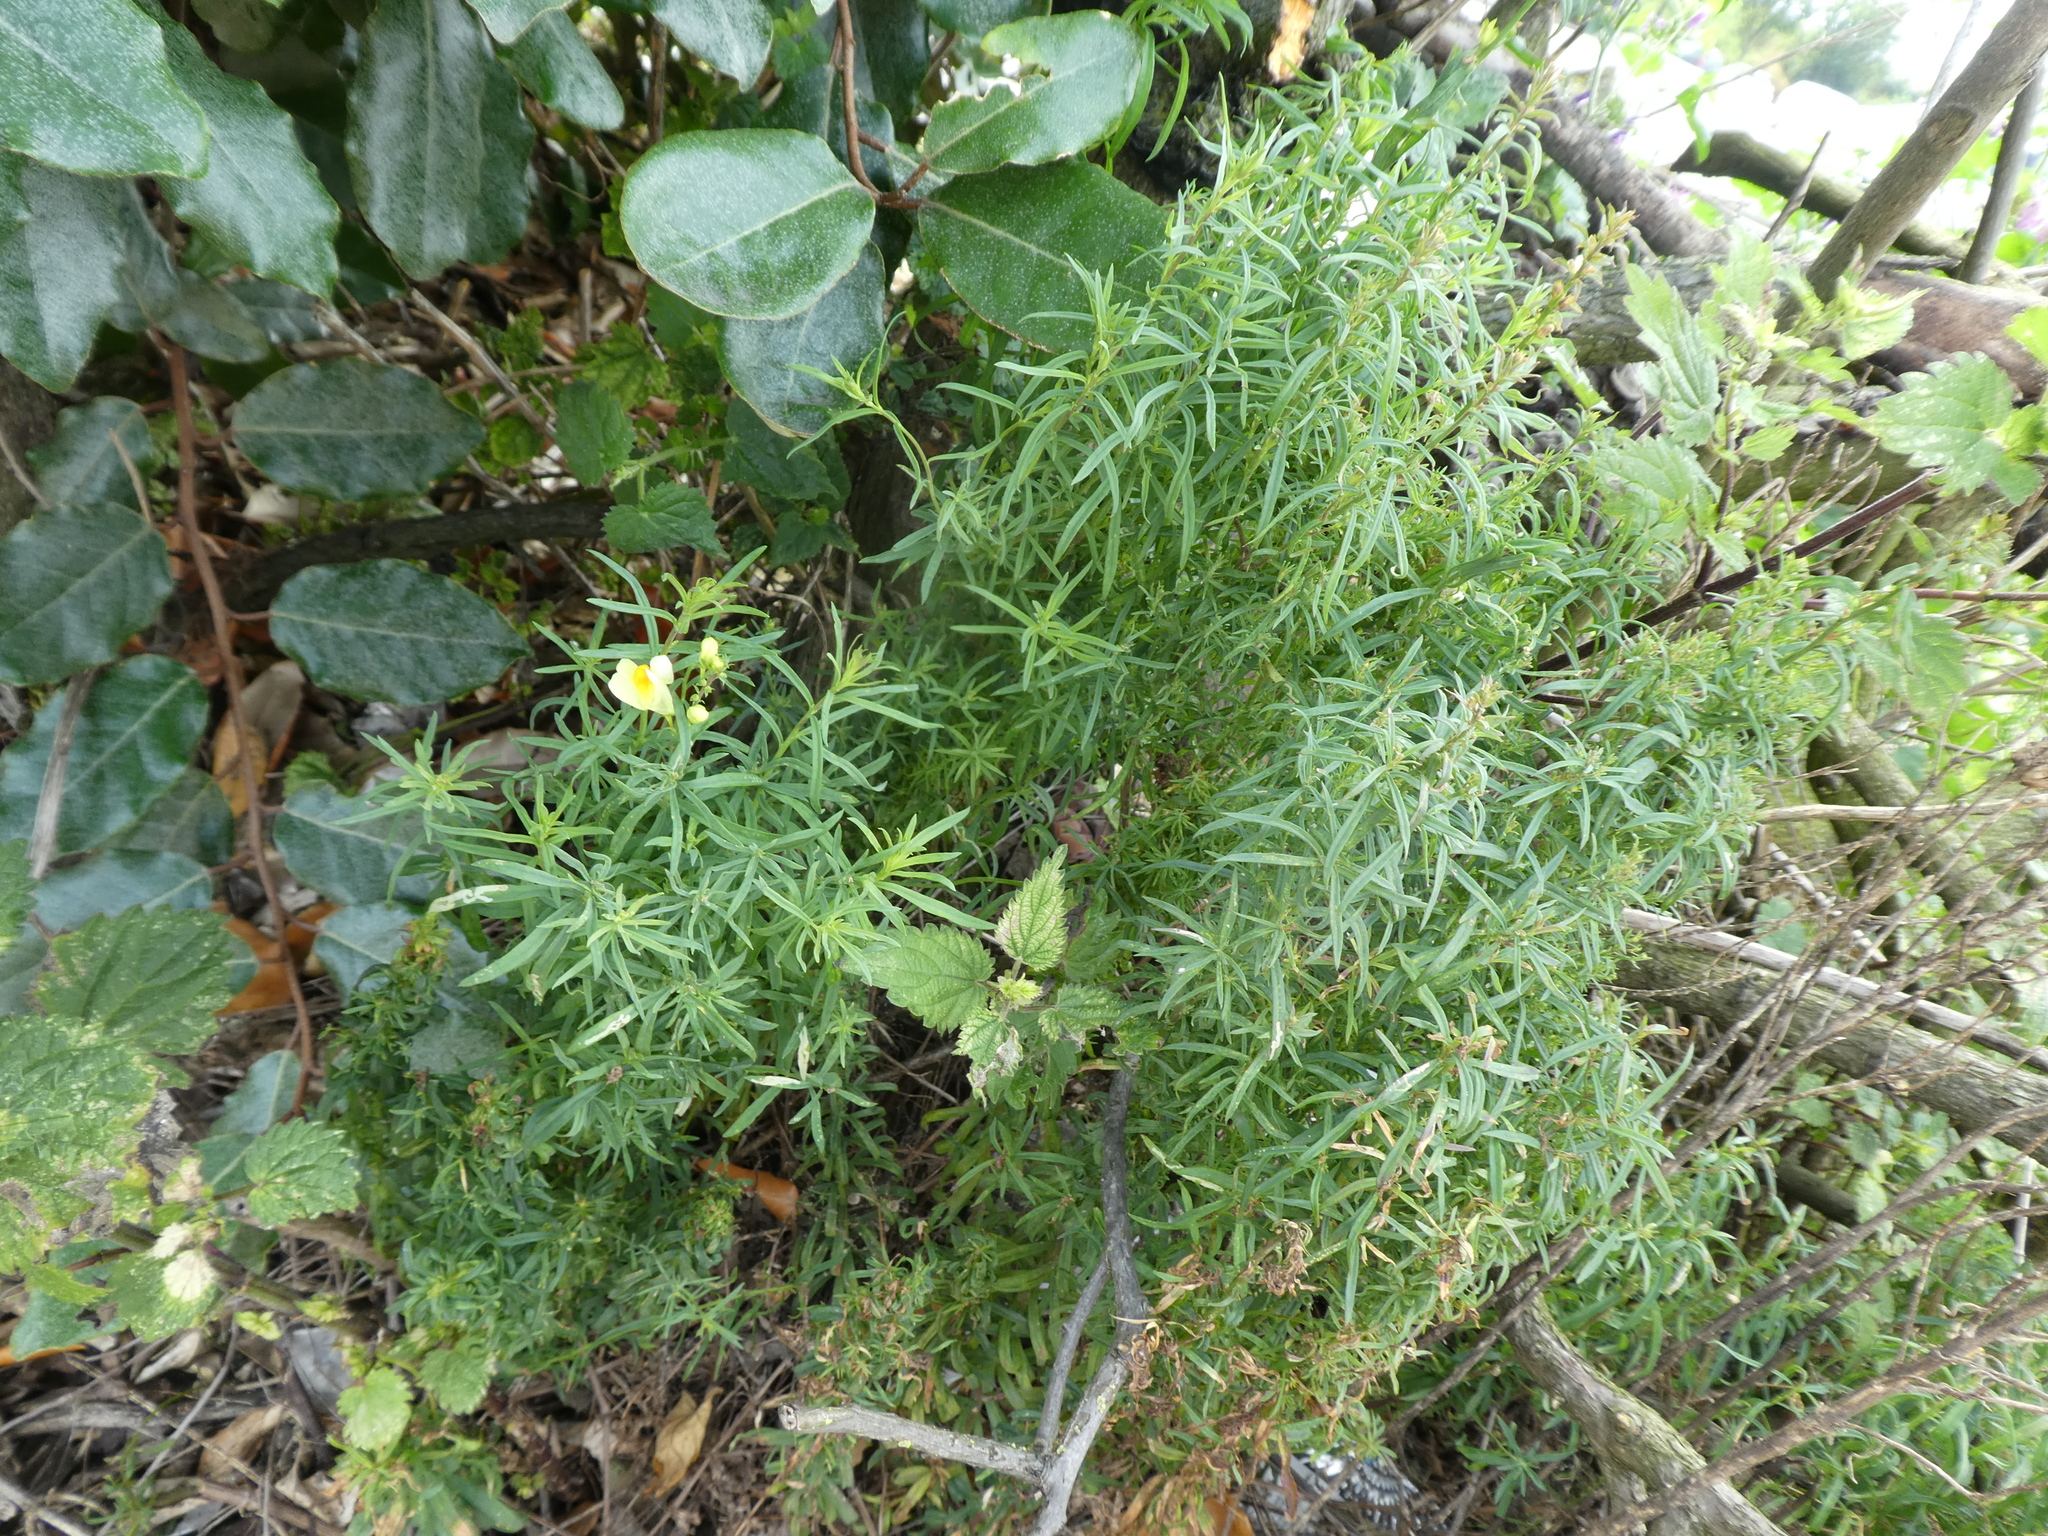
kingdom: Plantae
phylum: Tracheophyta
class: Magnoliopsida
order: Lamiales
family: Plantaginaceae
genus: Linaria
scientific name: Linaria vulgaris
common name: Butter and eggs
